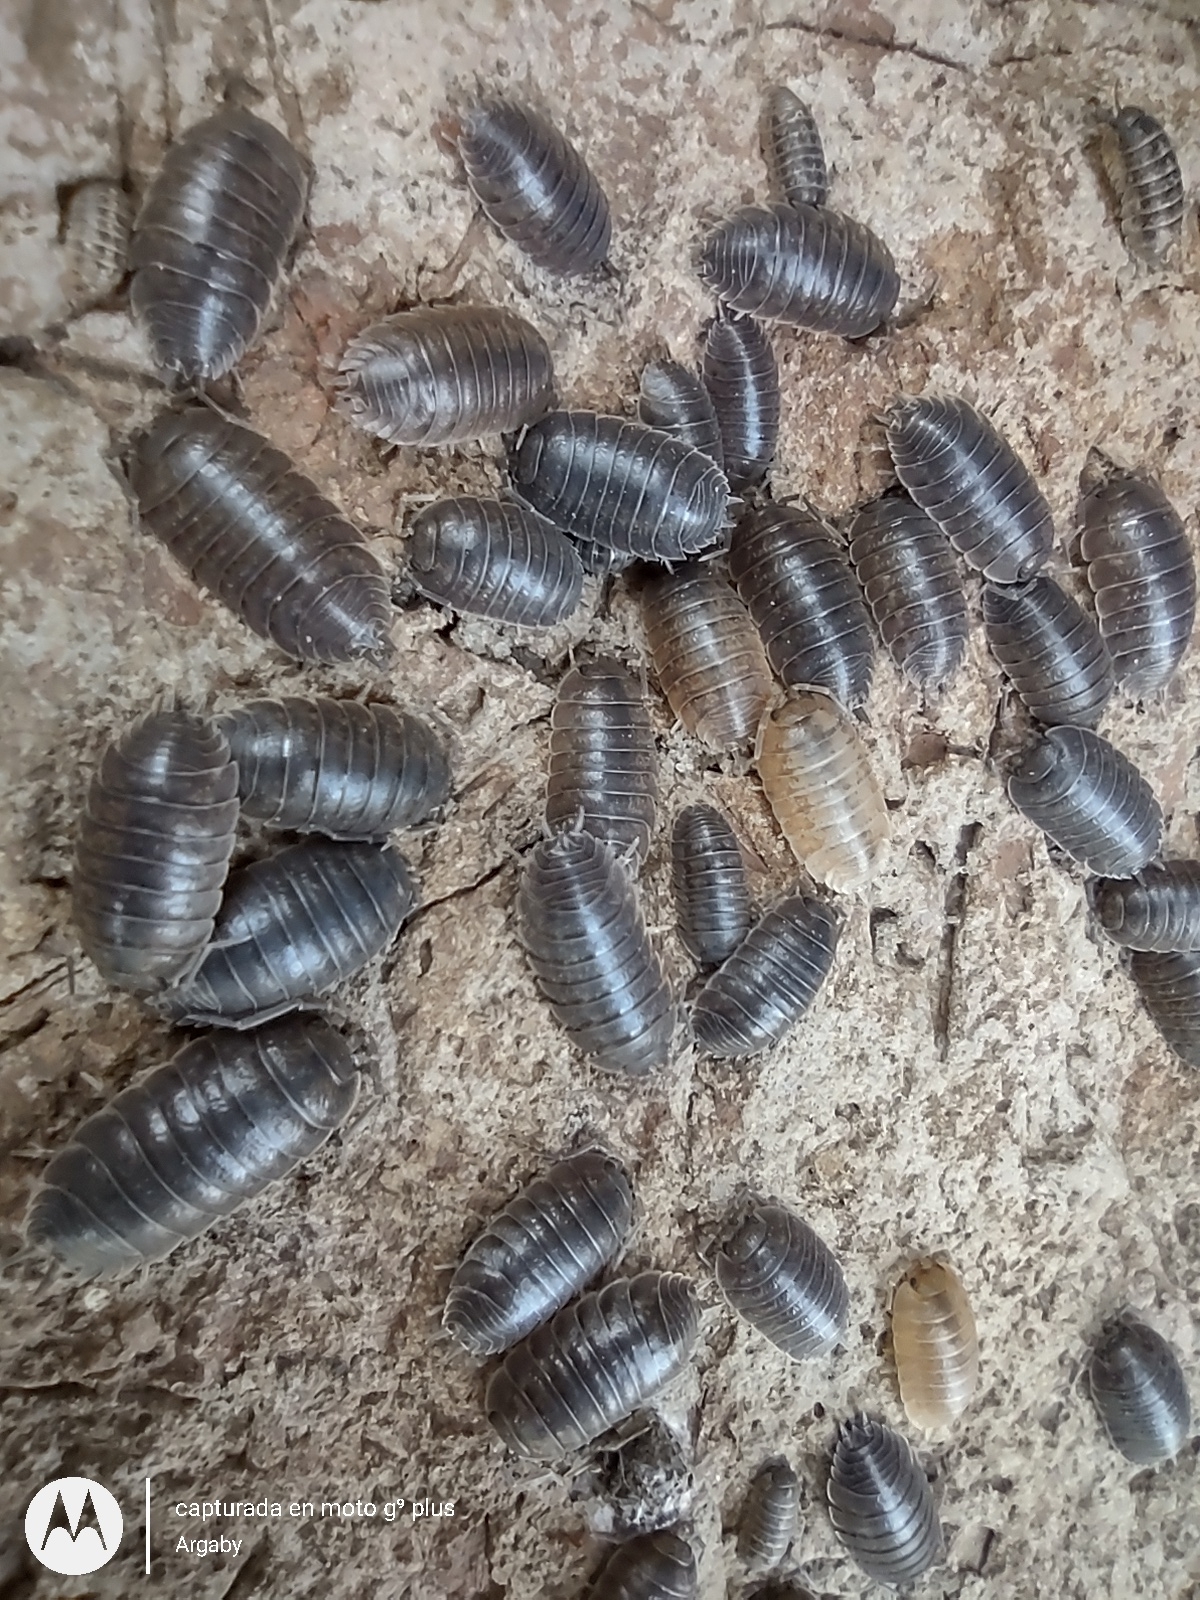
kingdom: Animalia
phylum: Arthropoda
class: Malacostraca
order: Isopoda
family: Porcellionidae
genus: Porcellio
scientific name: Porcellio laevis
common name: Swift woodlouse
